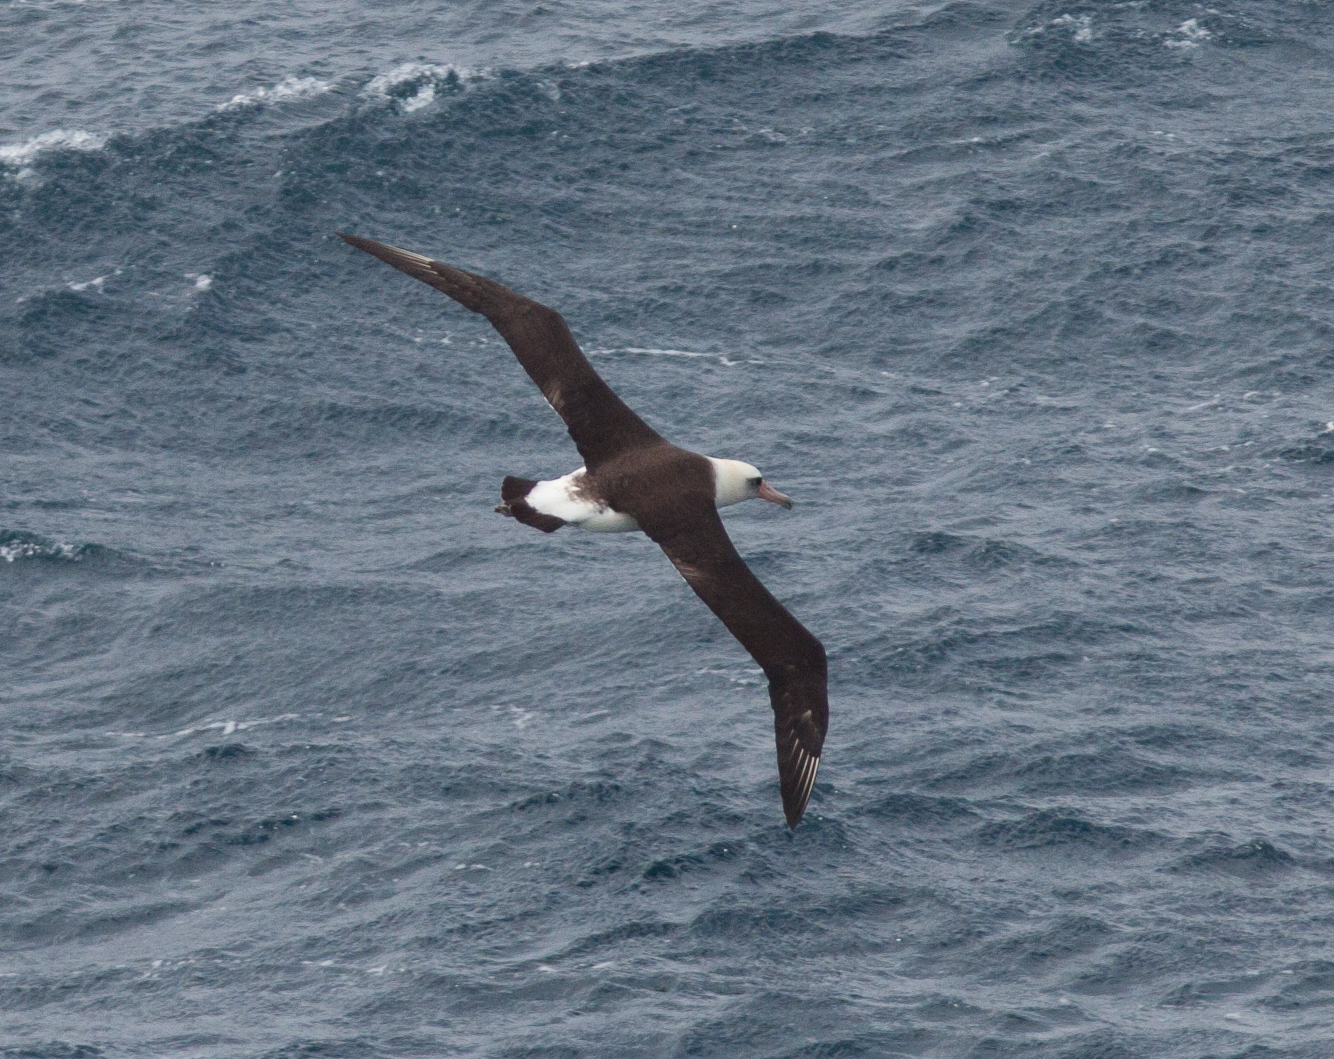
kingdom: Animalia
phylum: Chordata
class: Aves
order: Procellariiformes
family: Diomedeidae
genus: Phoebastria
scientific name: Phoebastria immutabilis
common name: Laysan albatross
